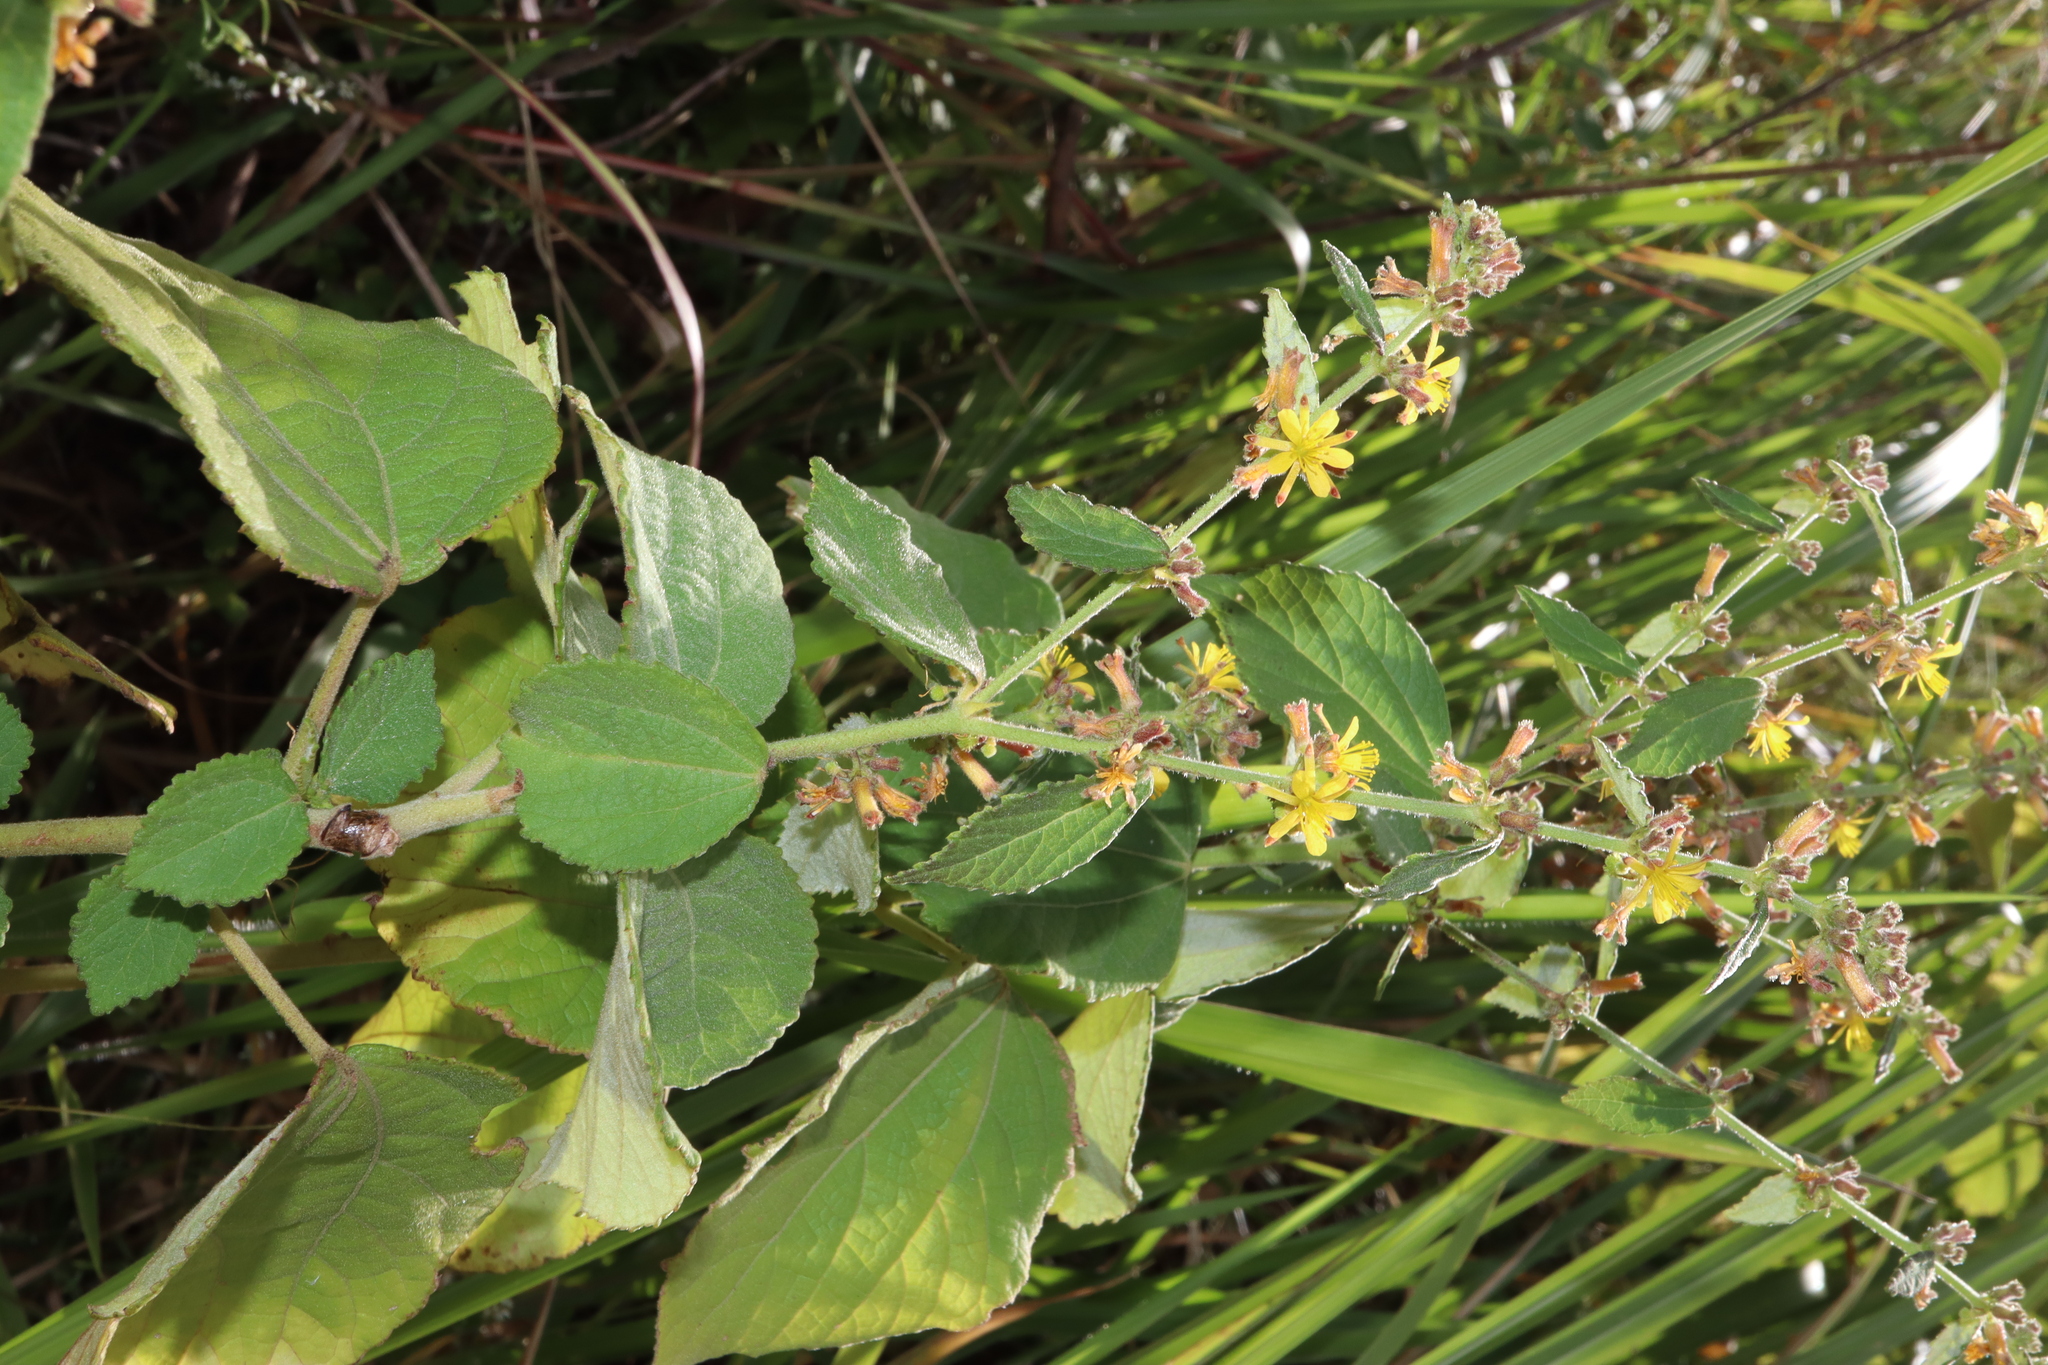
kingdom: Plantae
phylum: Tracheophyta
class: Magnoliopsida
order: Malvales
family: Malvaceae
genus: Triumfetta
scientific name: Triumfetta rhomboidea
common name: Diamond burbark
